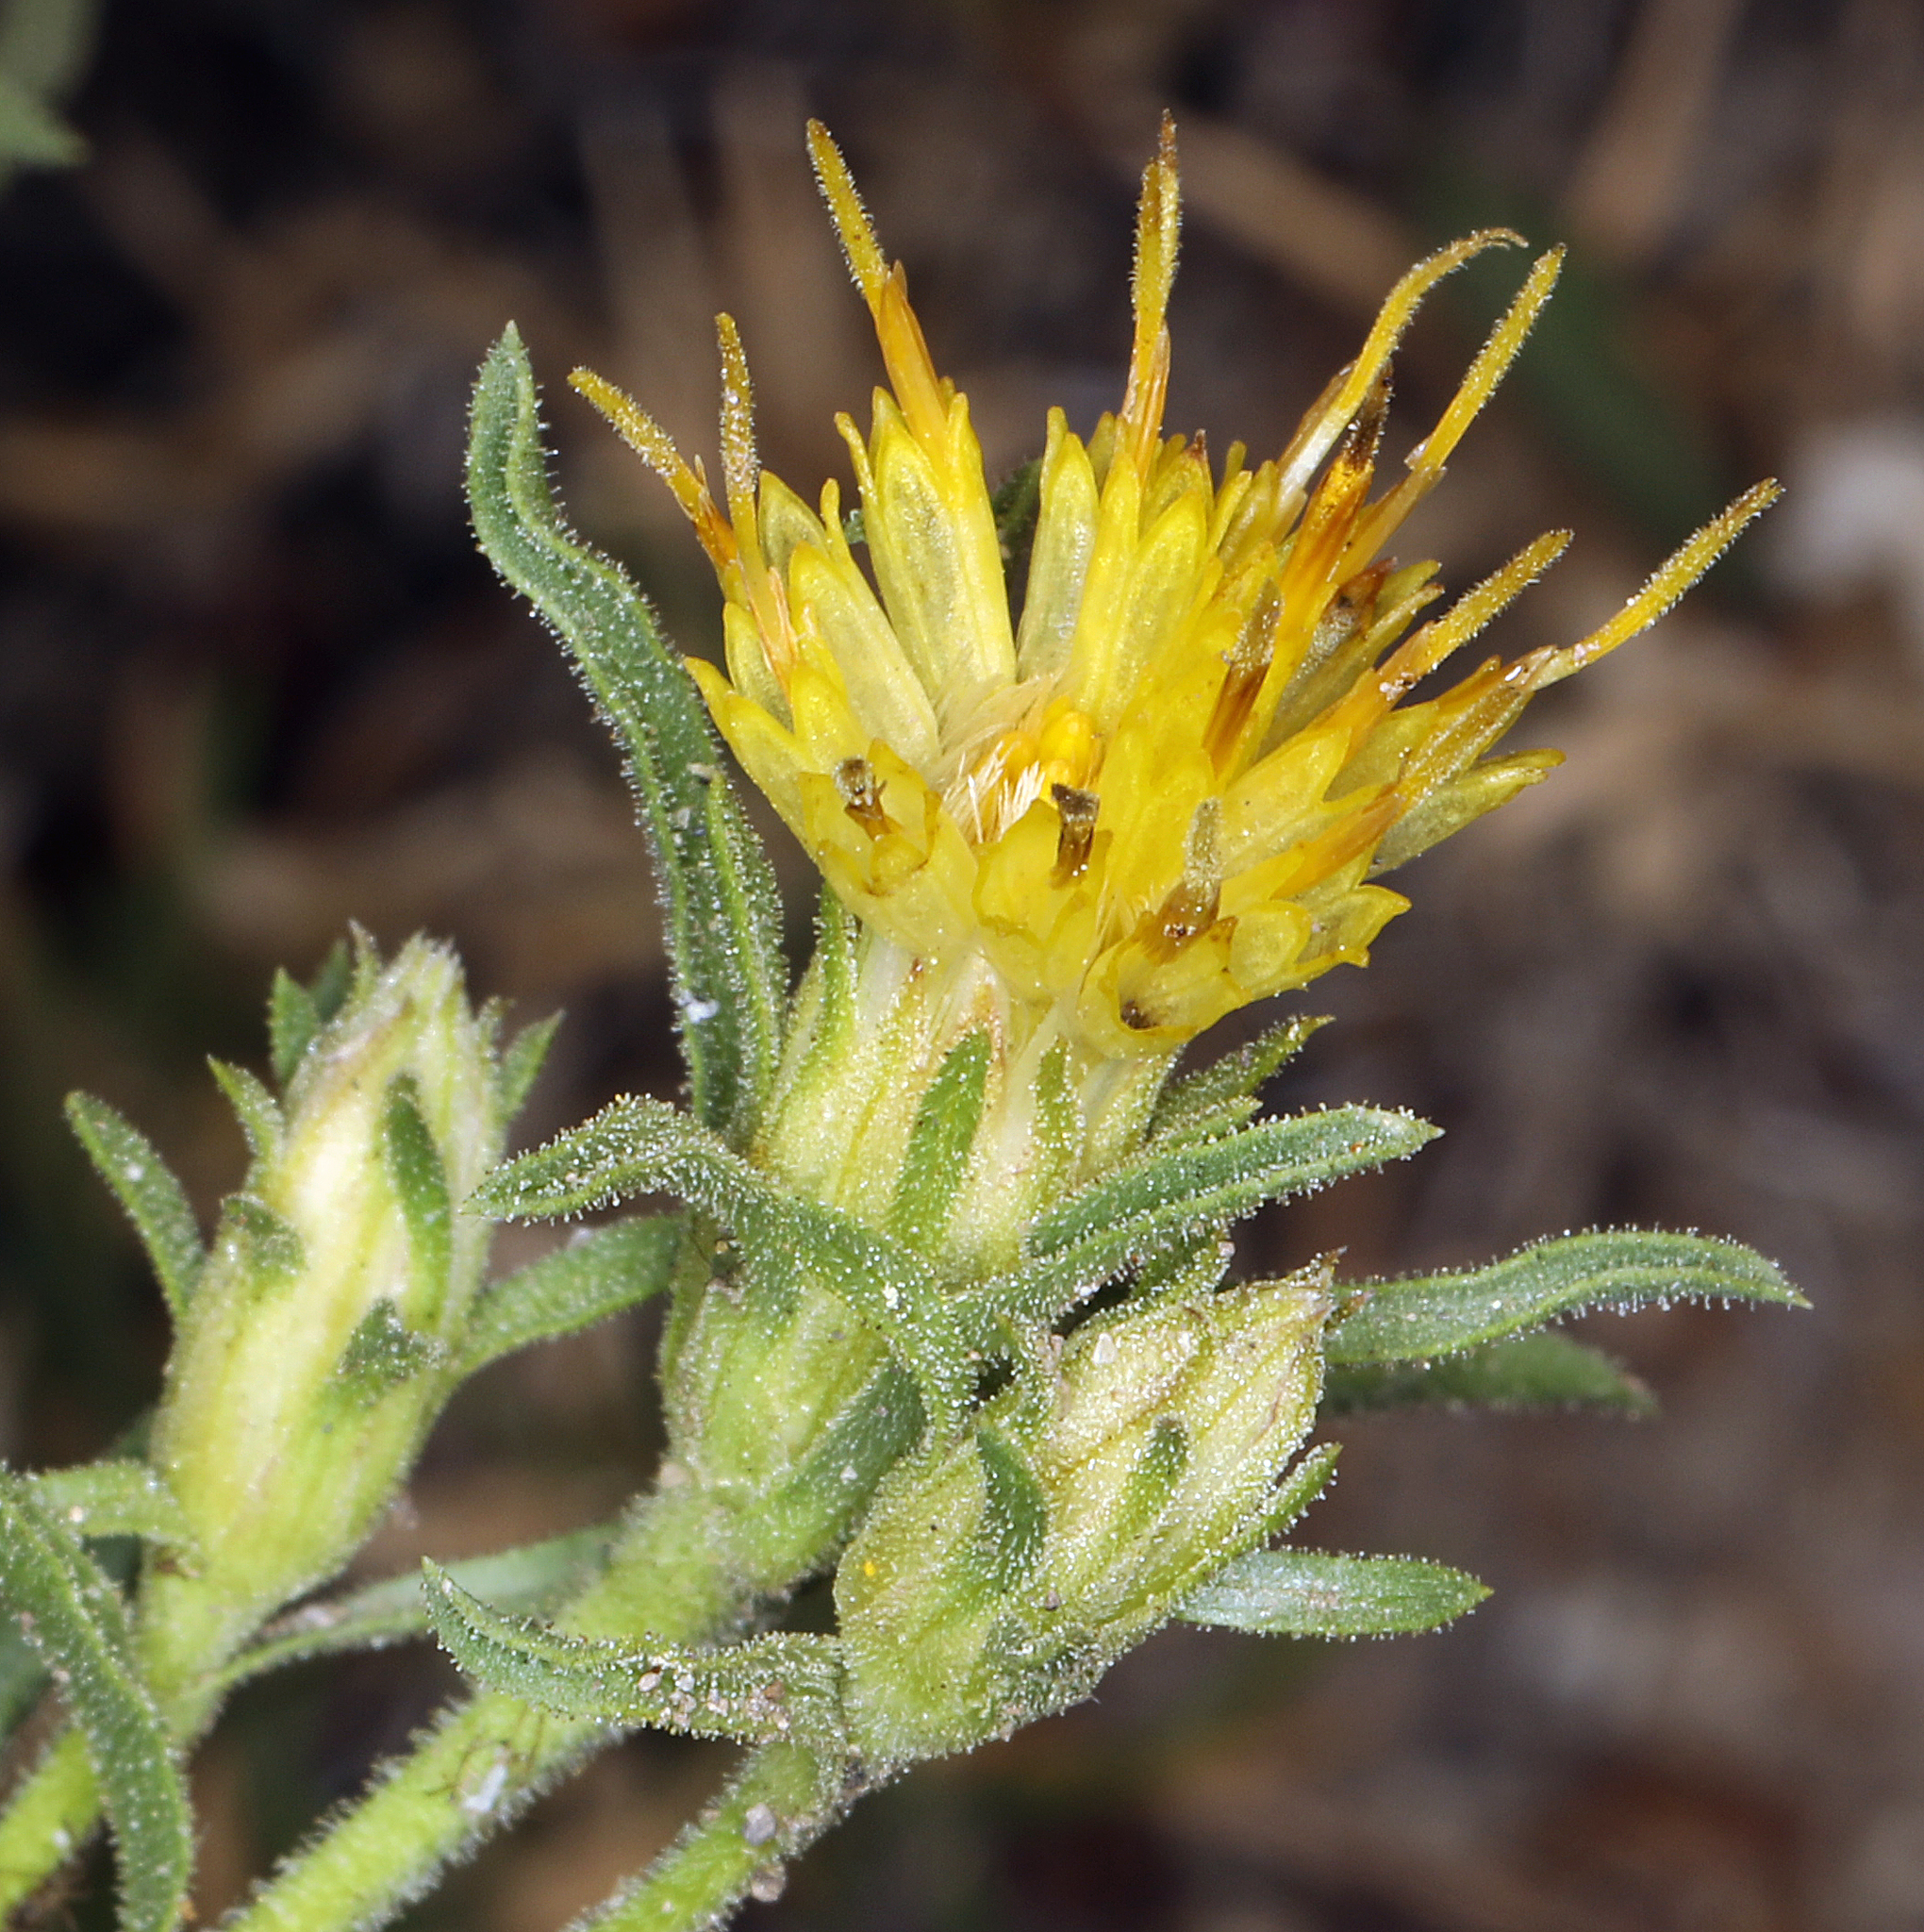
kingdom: Plantae
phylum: Tracheophyta
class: Magnoliopsida
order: Asterales
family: Asteraceae
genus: Ericameria
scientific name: Ericameria suffruticosa
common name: Goldenweed
